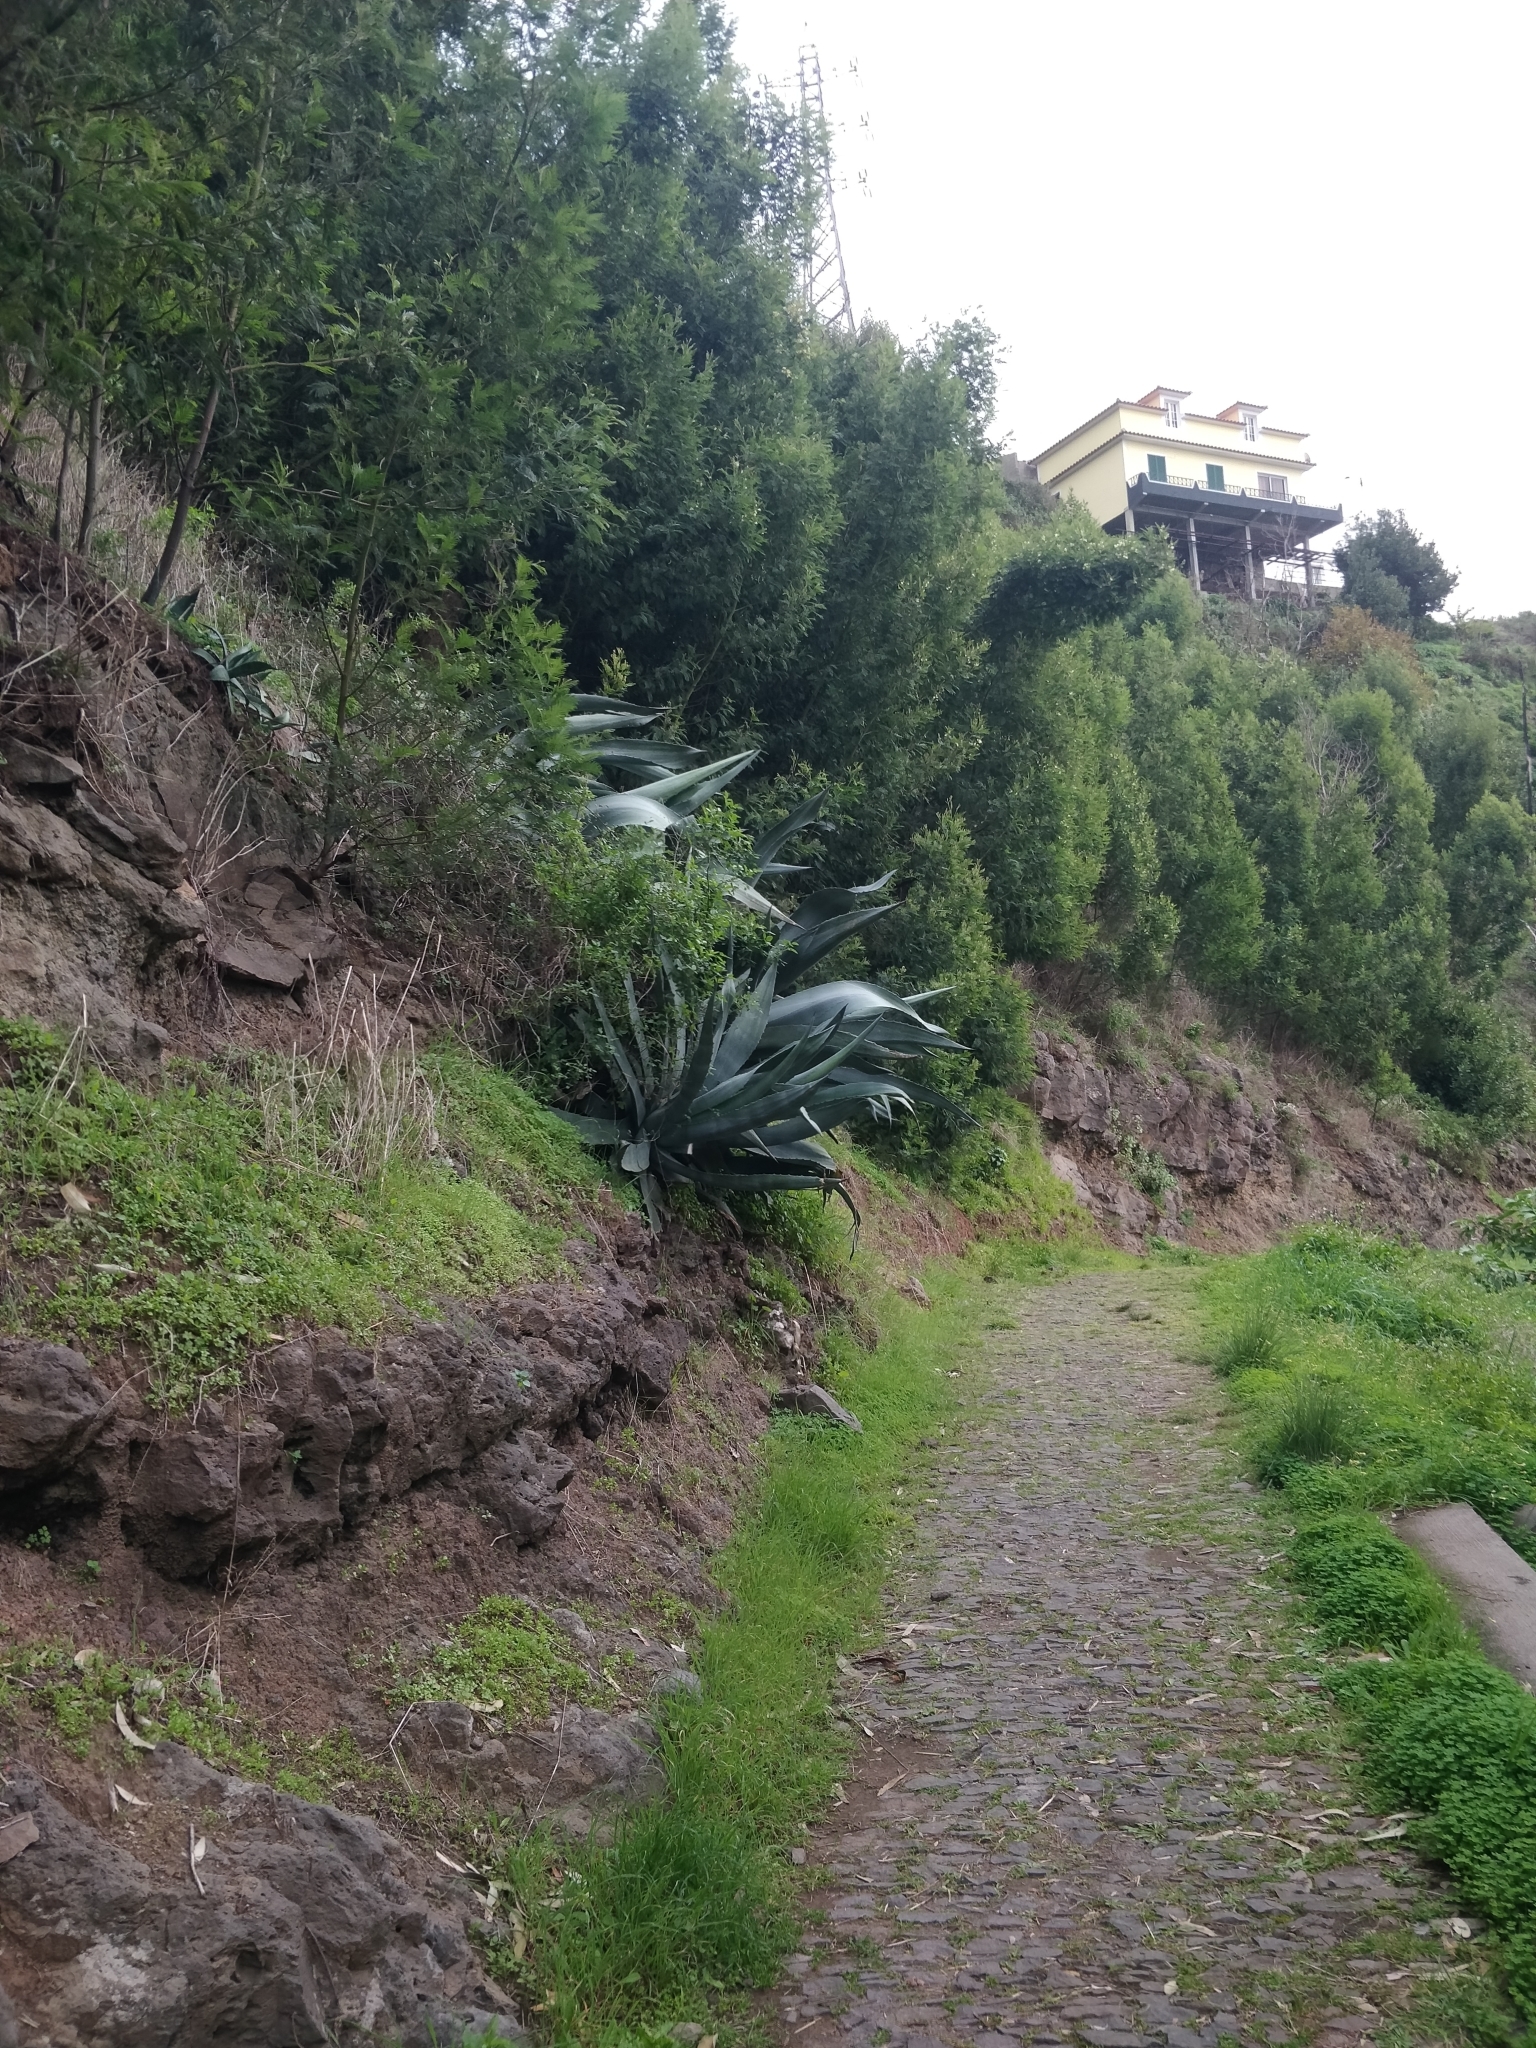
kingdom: Plantae
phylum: Tracheophyta
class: Liliopsida
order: Asparagales
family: Asparagaceae
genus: Agave
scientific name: Agave americana
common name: Centuryplant
